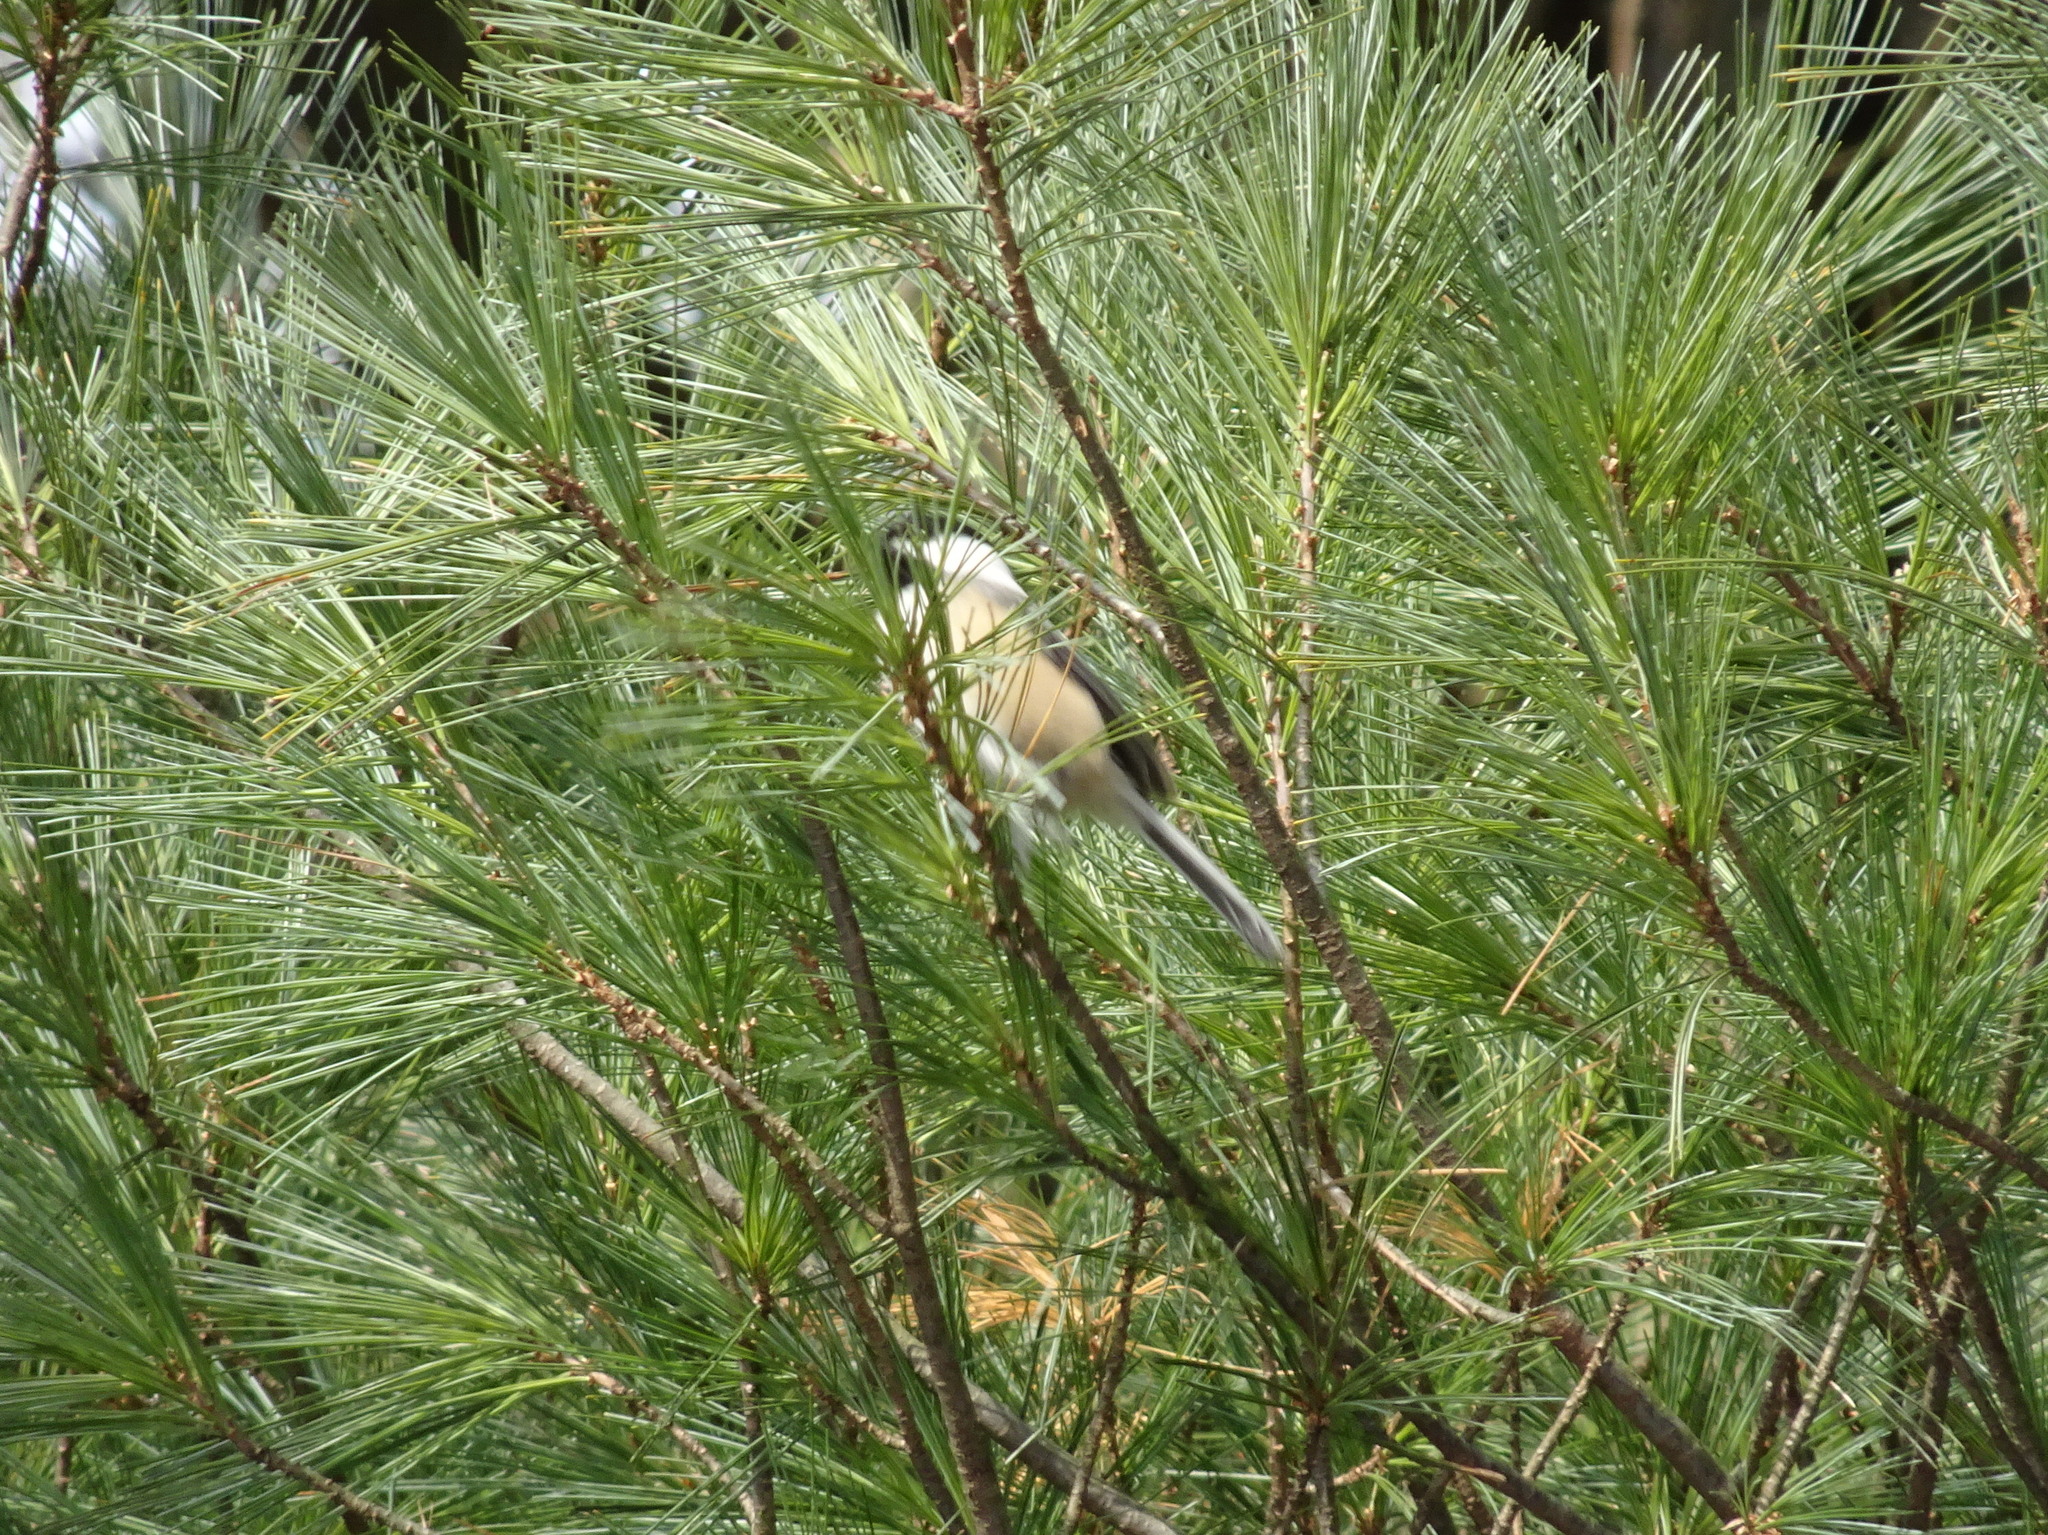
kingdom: Animalia
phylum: Chordata
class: Aves
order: Passeriformes
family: Paridae
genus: Poecile
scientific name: Poecile atricapillus
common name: Black-capped chickadee
